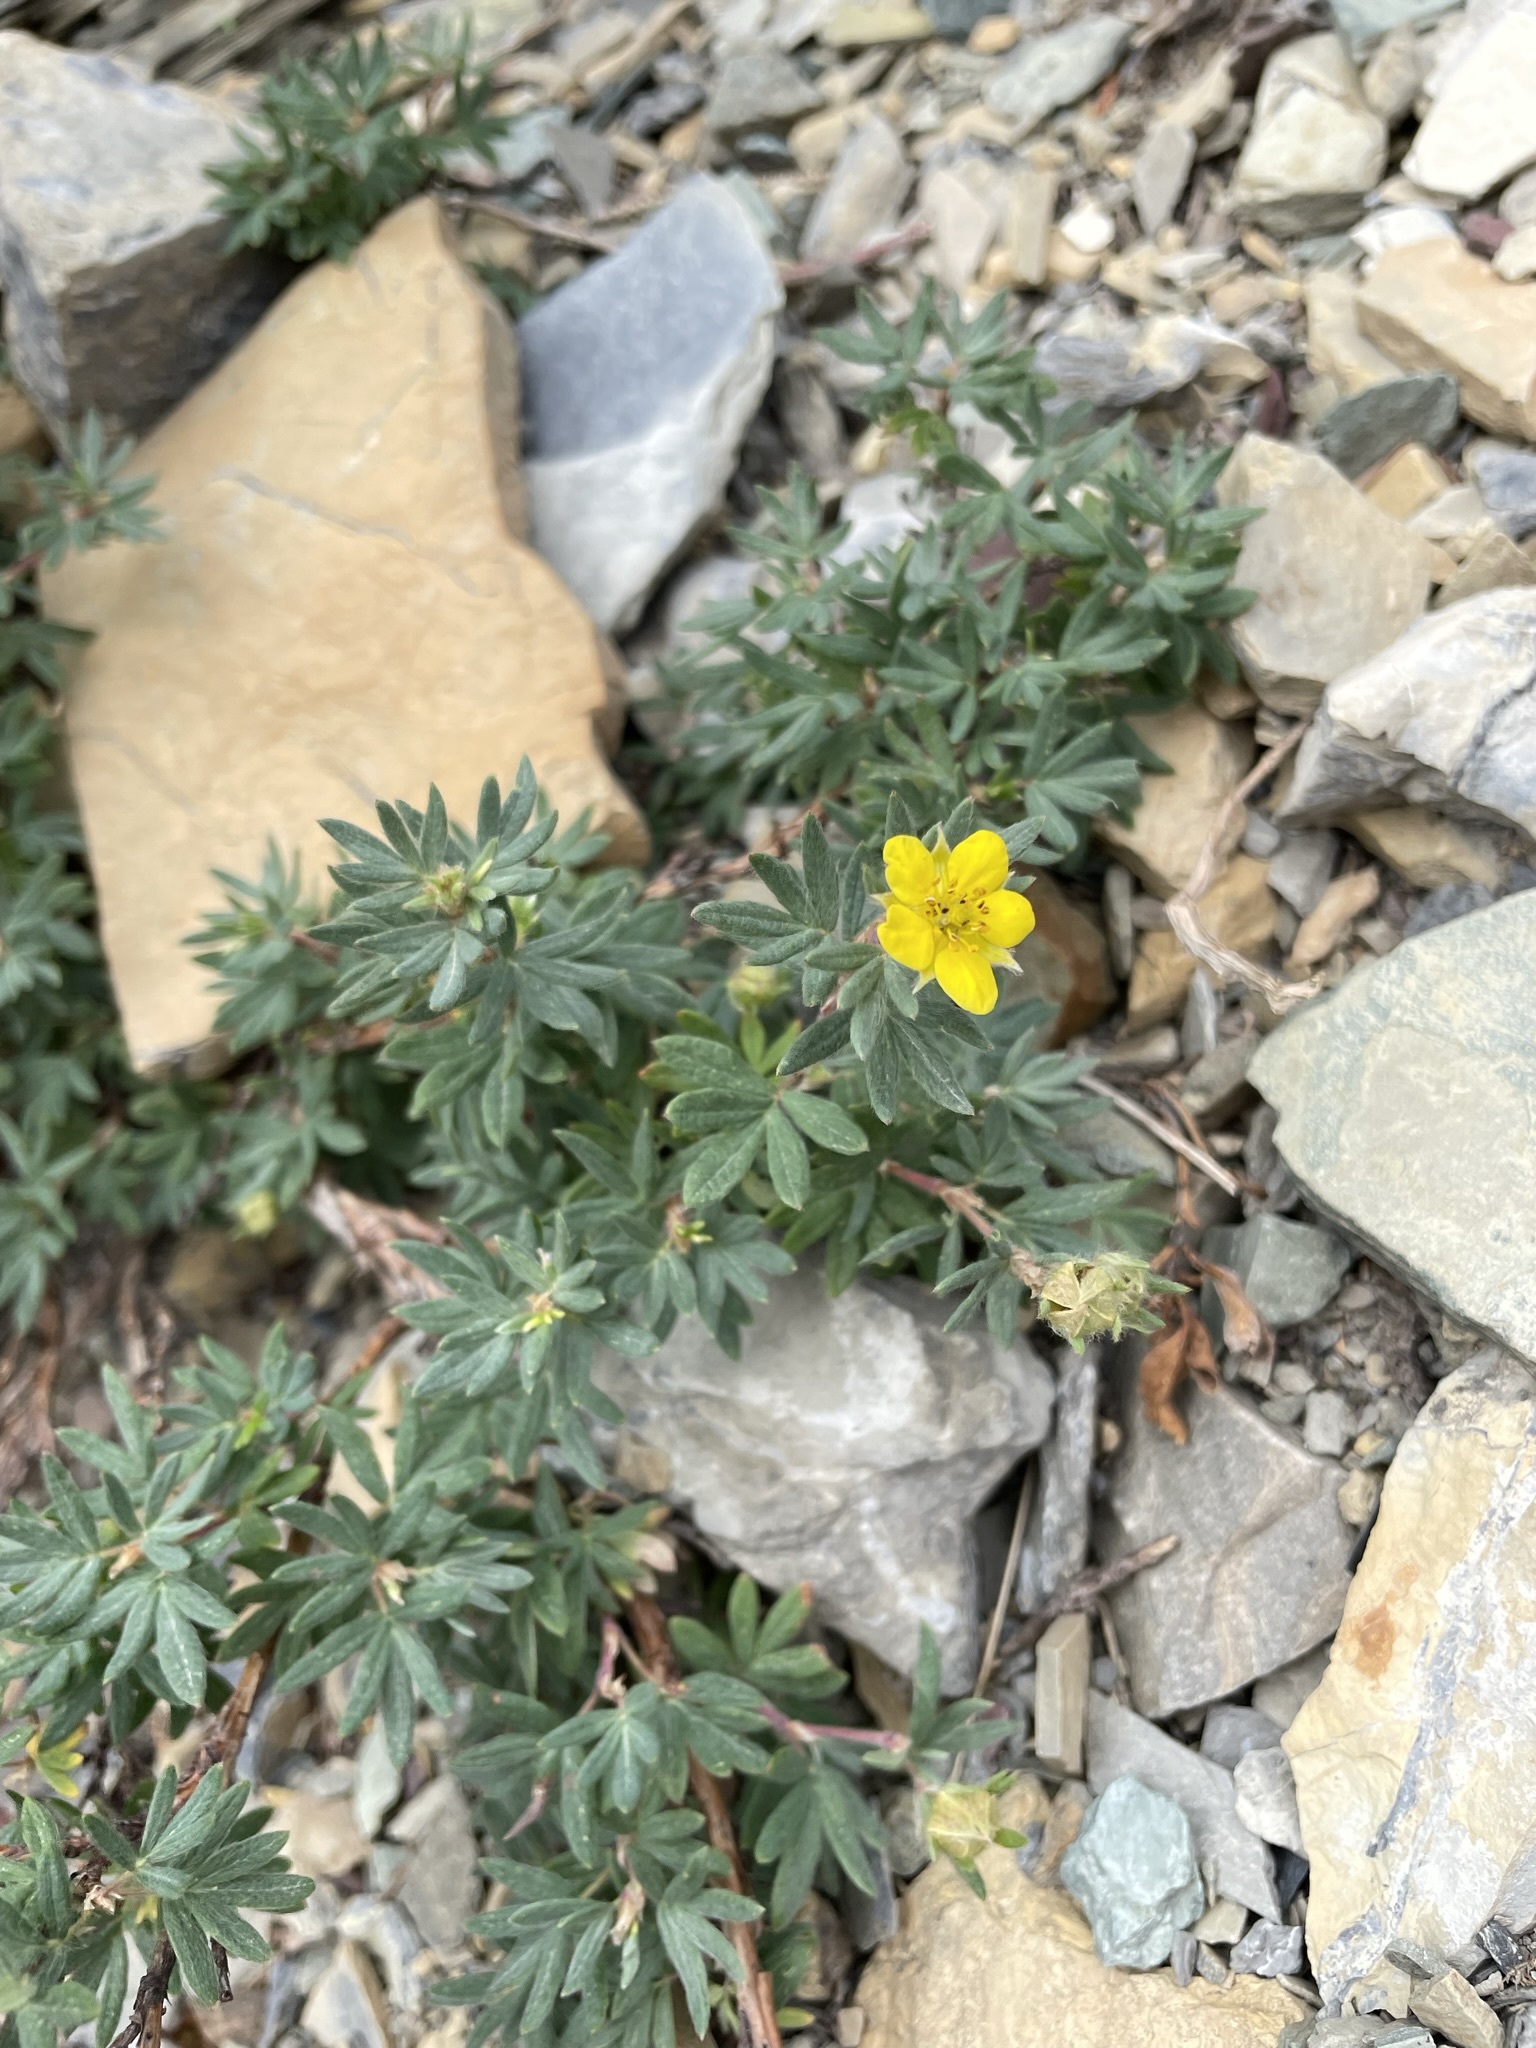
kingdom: Plantae
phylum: Tracheophyta
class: Magnoliopsida
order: Rosales
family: Rosaceae
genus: Dasiphora
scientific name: Dasiphora fruticosa
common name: Shrubby cinquefoil
